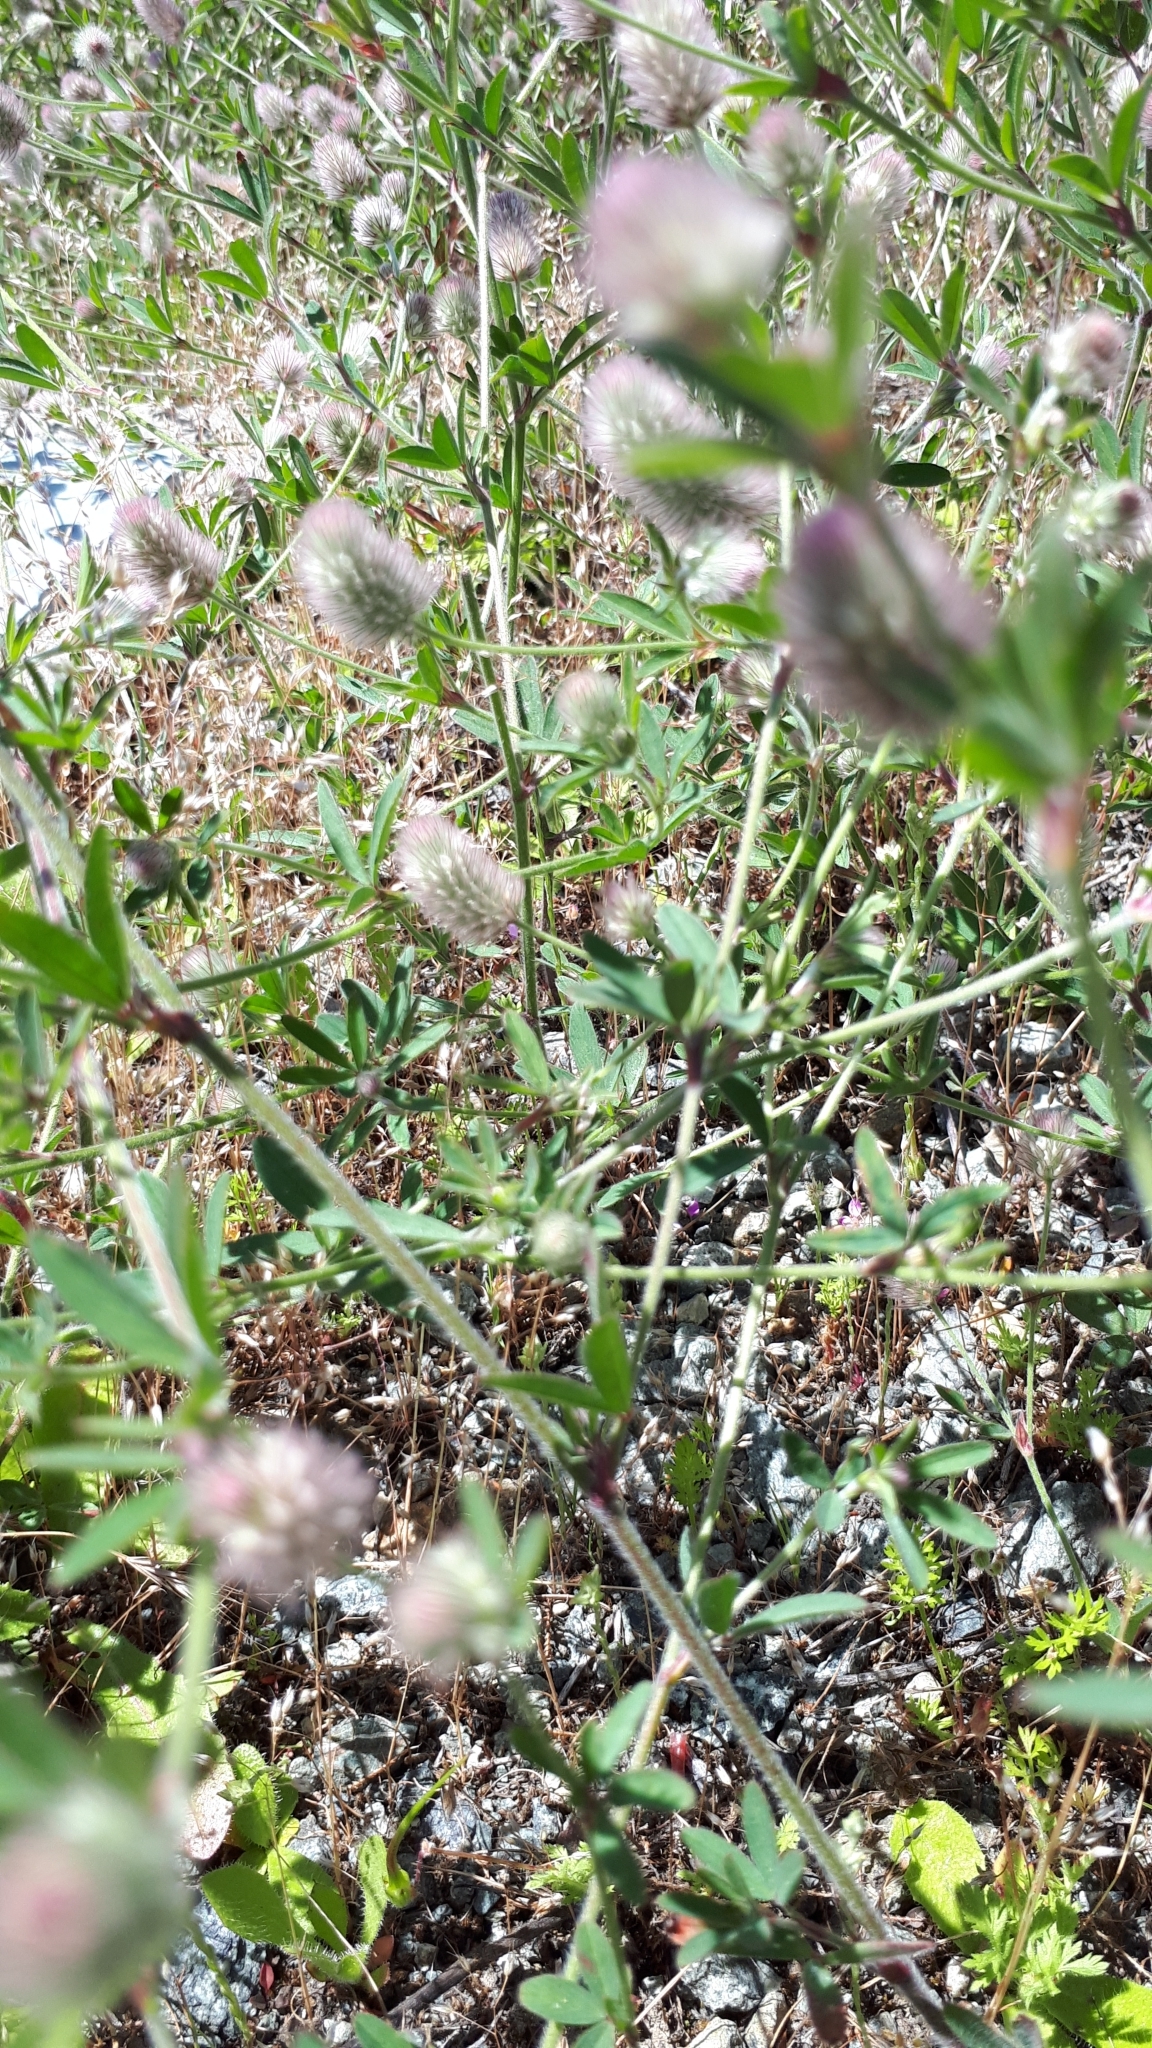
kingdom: Plantae
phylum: Tracheophyta
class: Magnoliopsida
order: Fabales
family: Fabaceae
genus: Trifolium
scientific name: Trifolium arvense
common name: Hare's-foot clover
